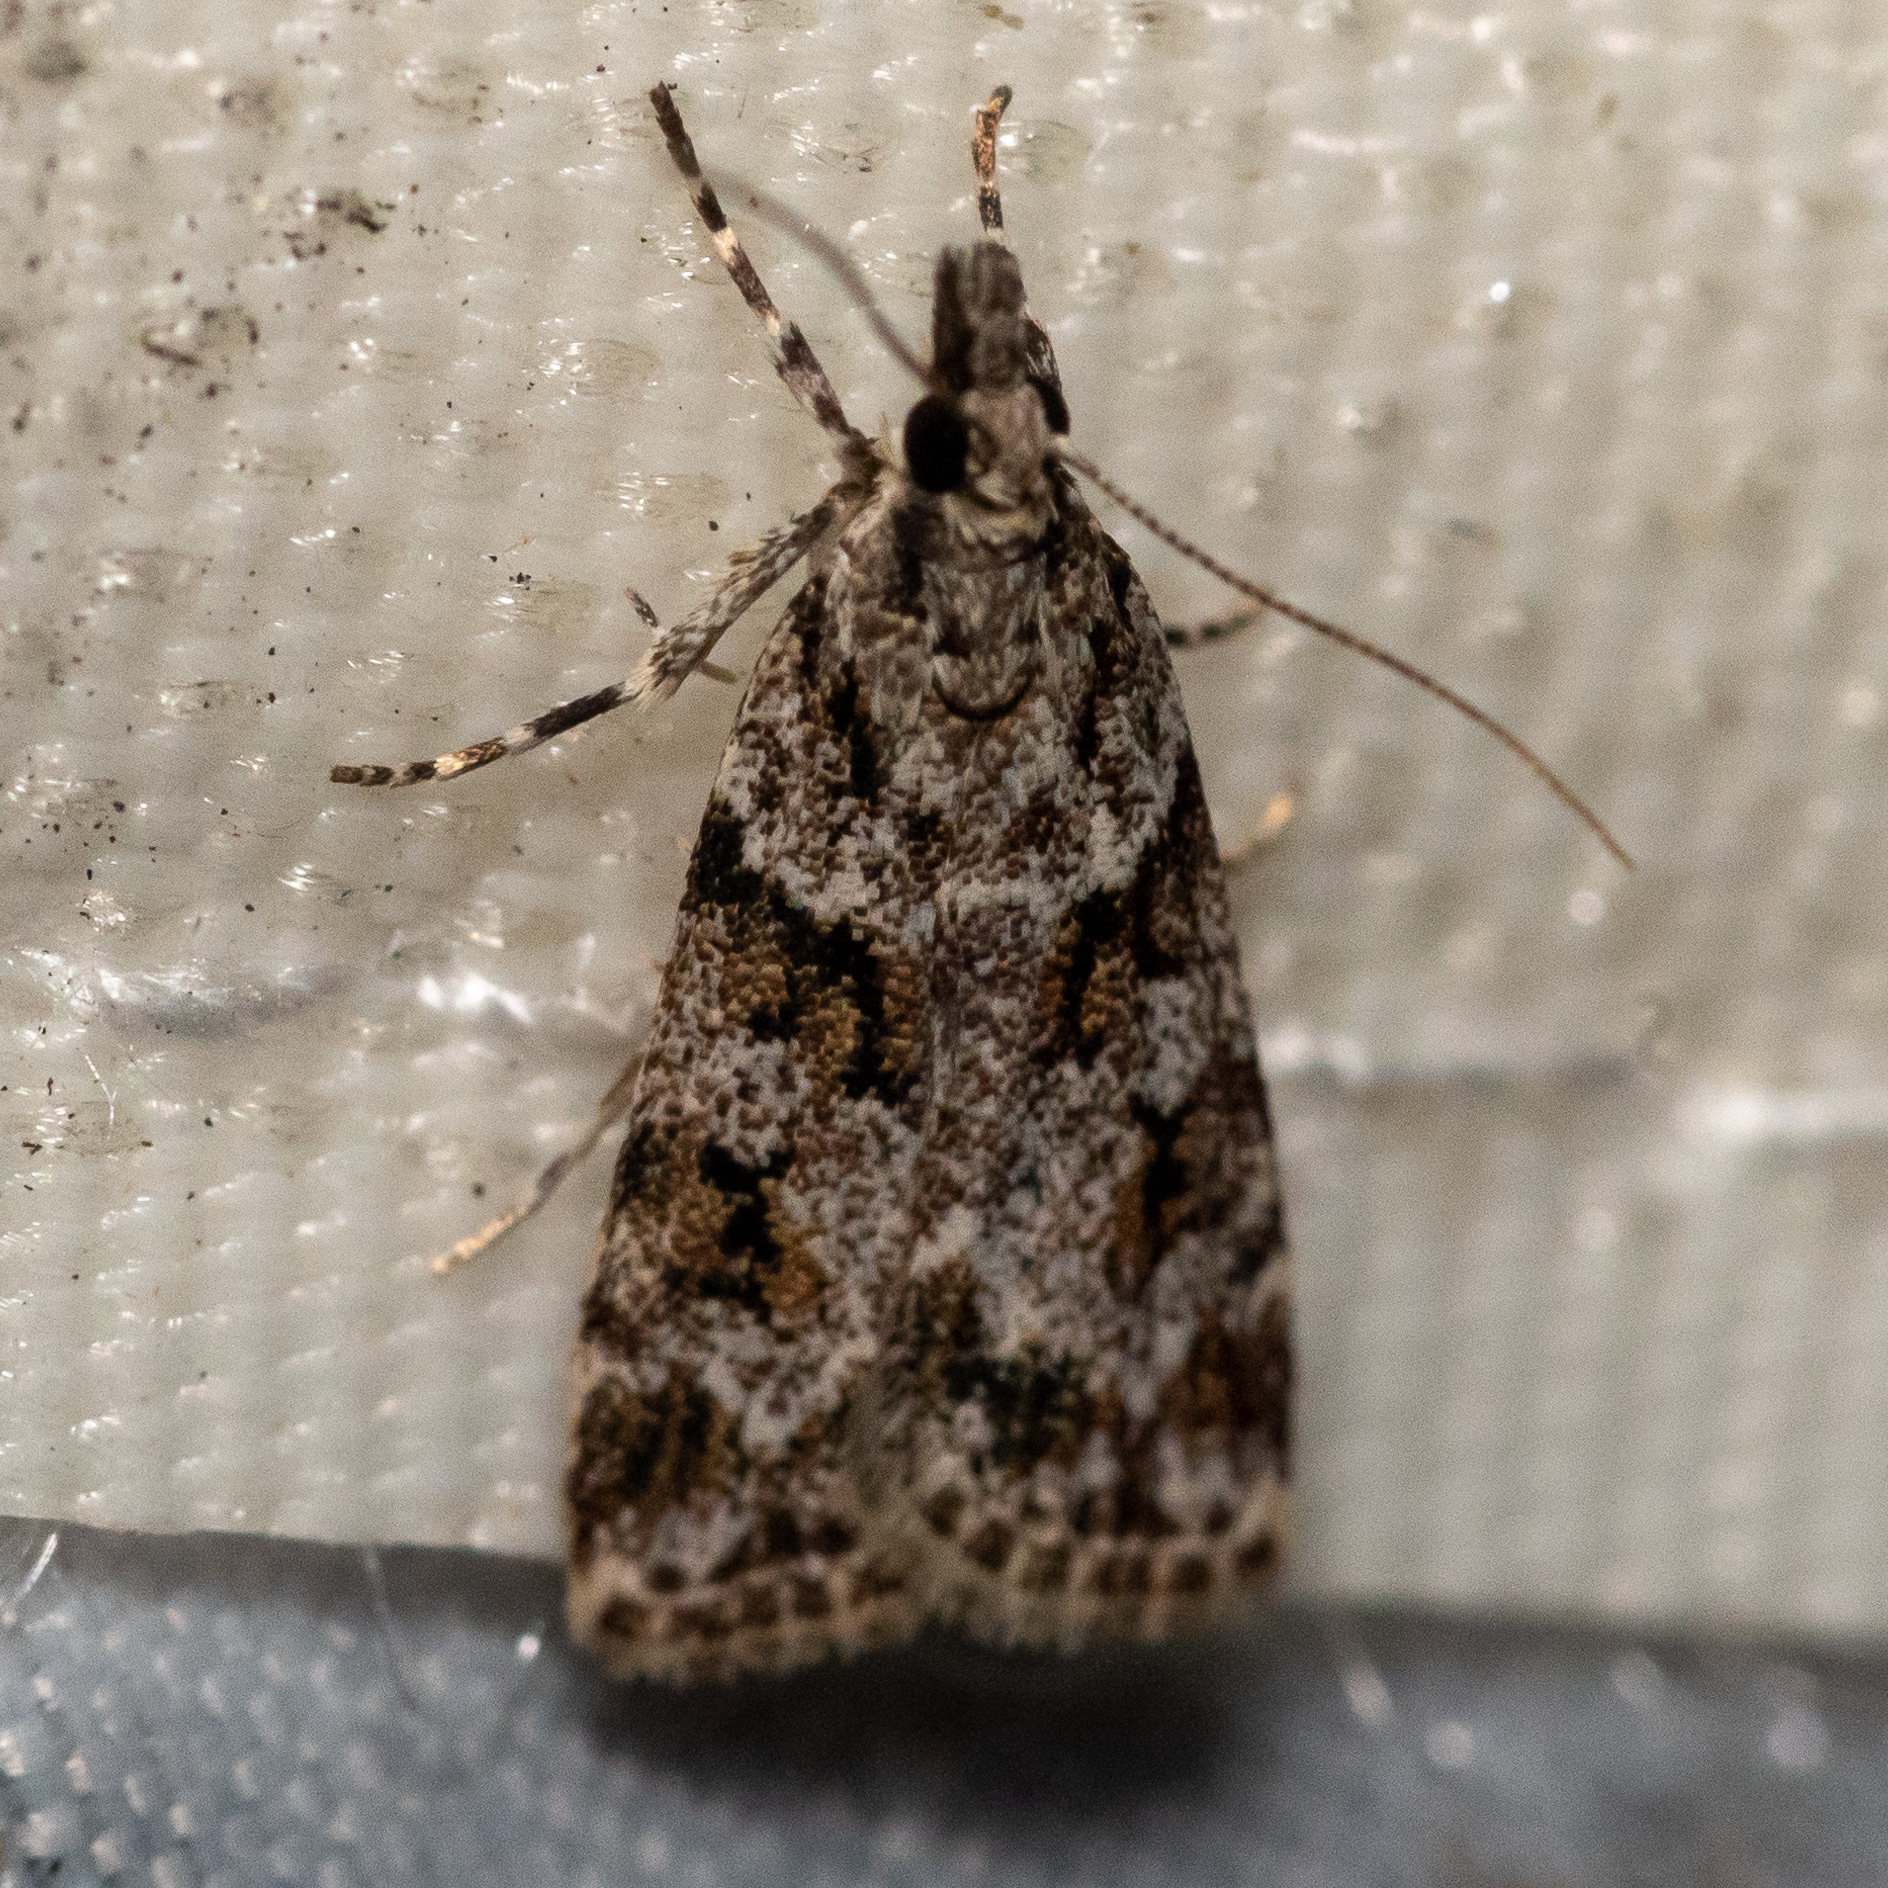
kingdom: Animalia
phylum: Arthropoda
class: Insecta
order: Lepidoptera
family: Crambidae
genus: Scoparia
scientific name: Scoparia biplagialis
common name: Double-striped scoparia moth
